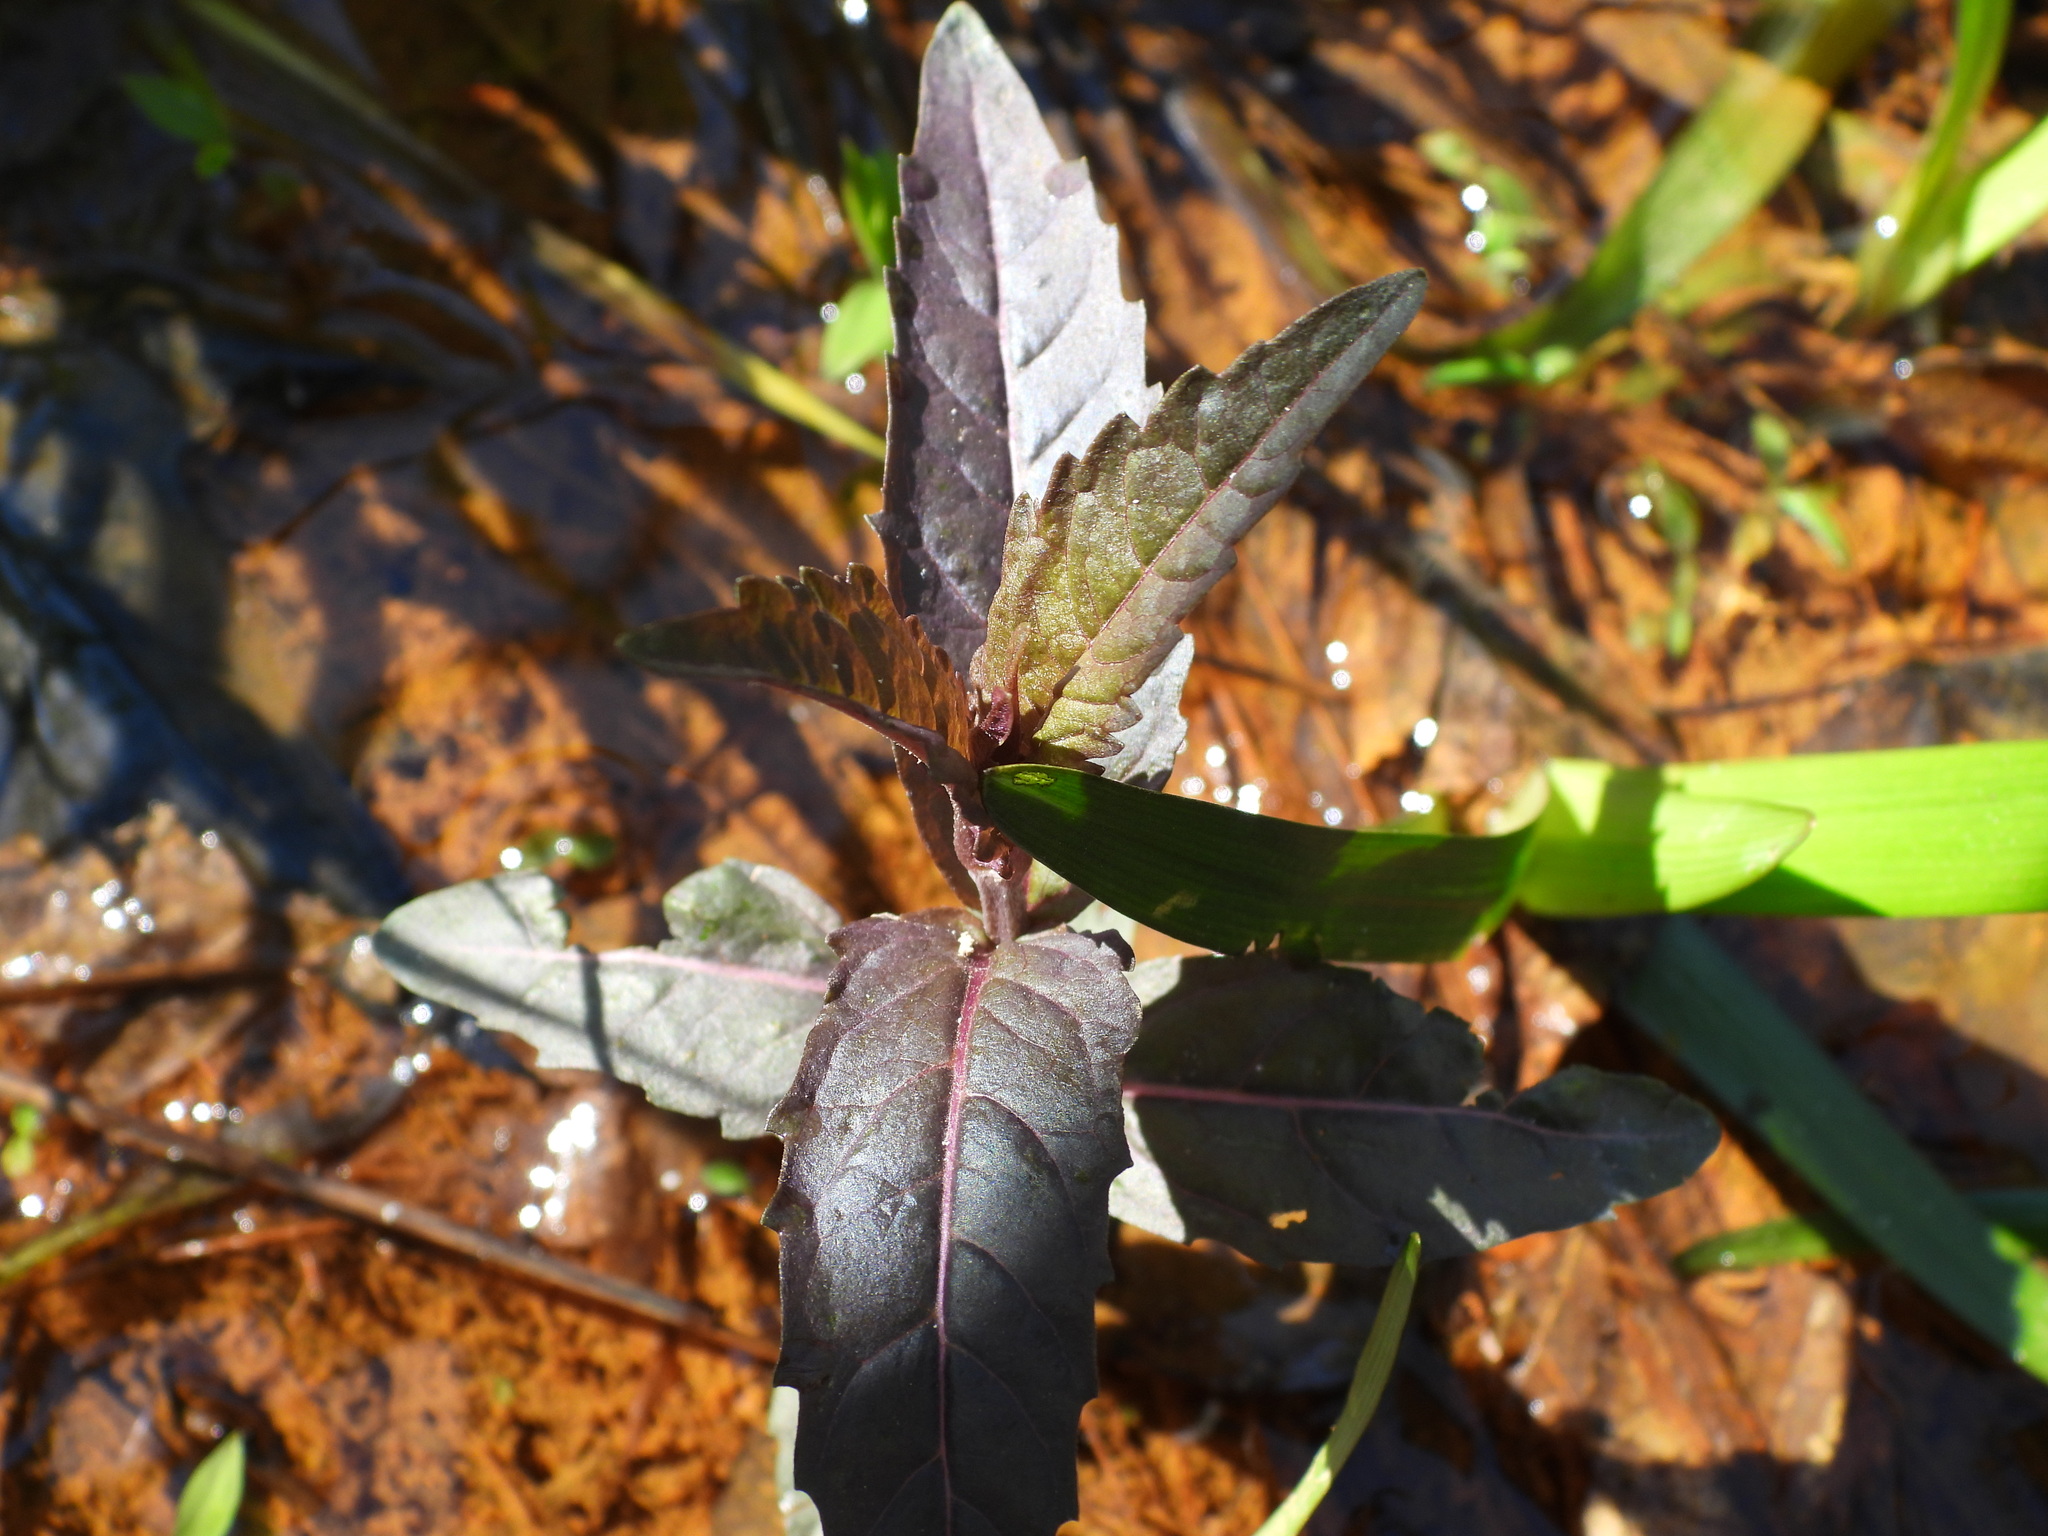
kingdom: Plantae
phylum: Tracheophyta
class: Magnoliopsida
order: Lamiales
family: Lamiaceae
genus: Lycopus
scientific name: Lycopus uniflorus
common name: Northern bugleweed
